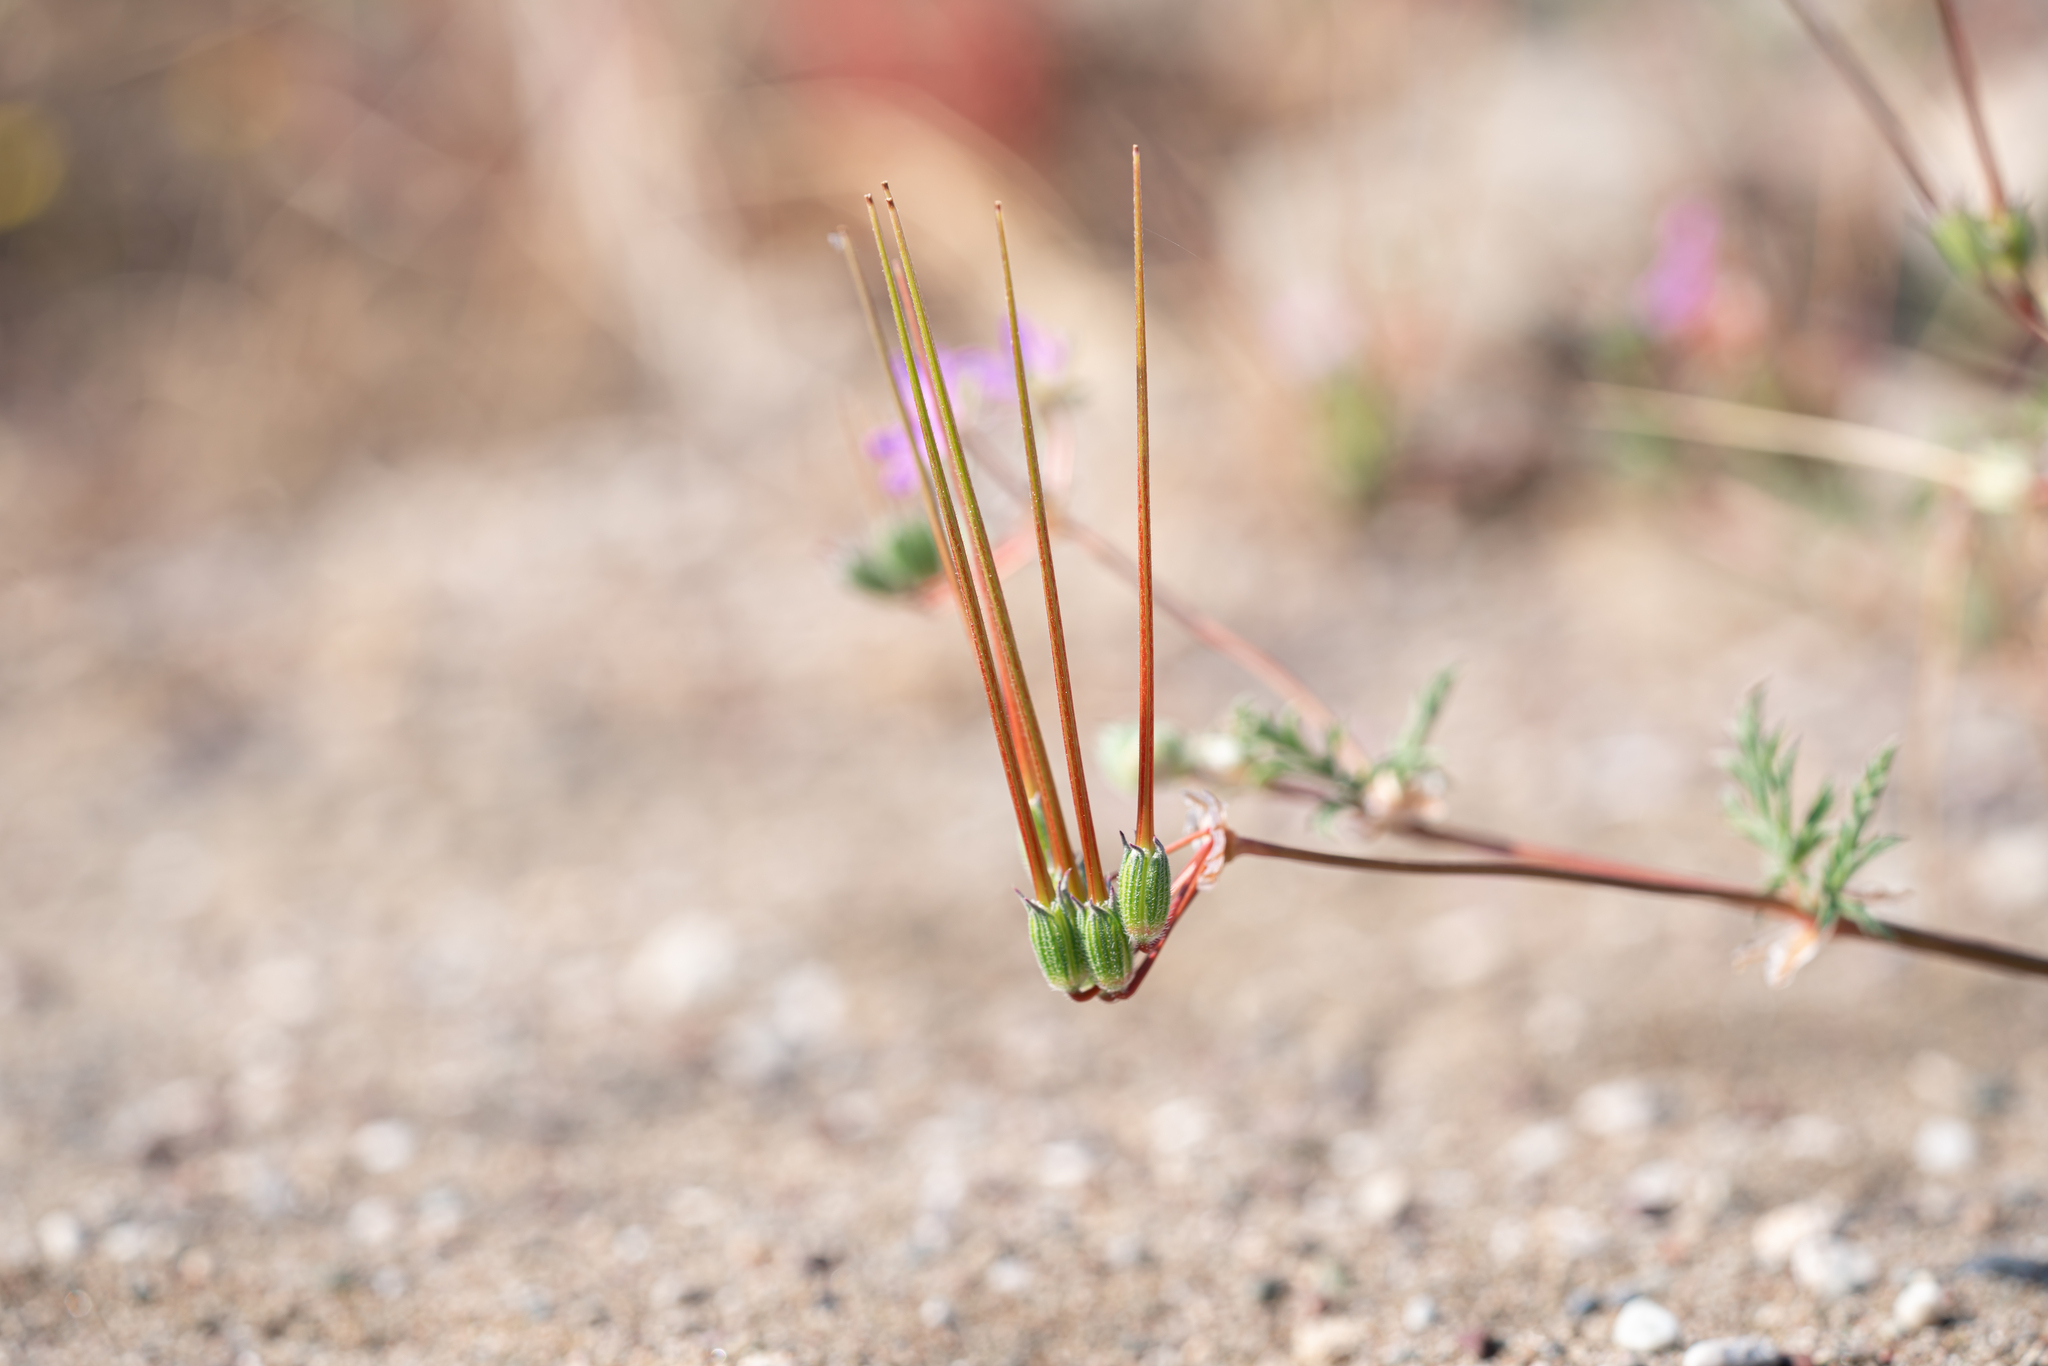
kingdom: Plantae
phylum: Tracheophyta
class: Magnoliopsida
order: Geraniales
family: Geraniaceae
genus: Erodium
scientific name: Erodium laciniatum
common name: Cutleaf stork's bill
